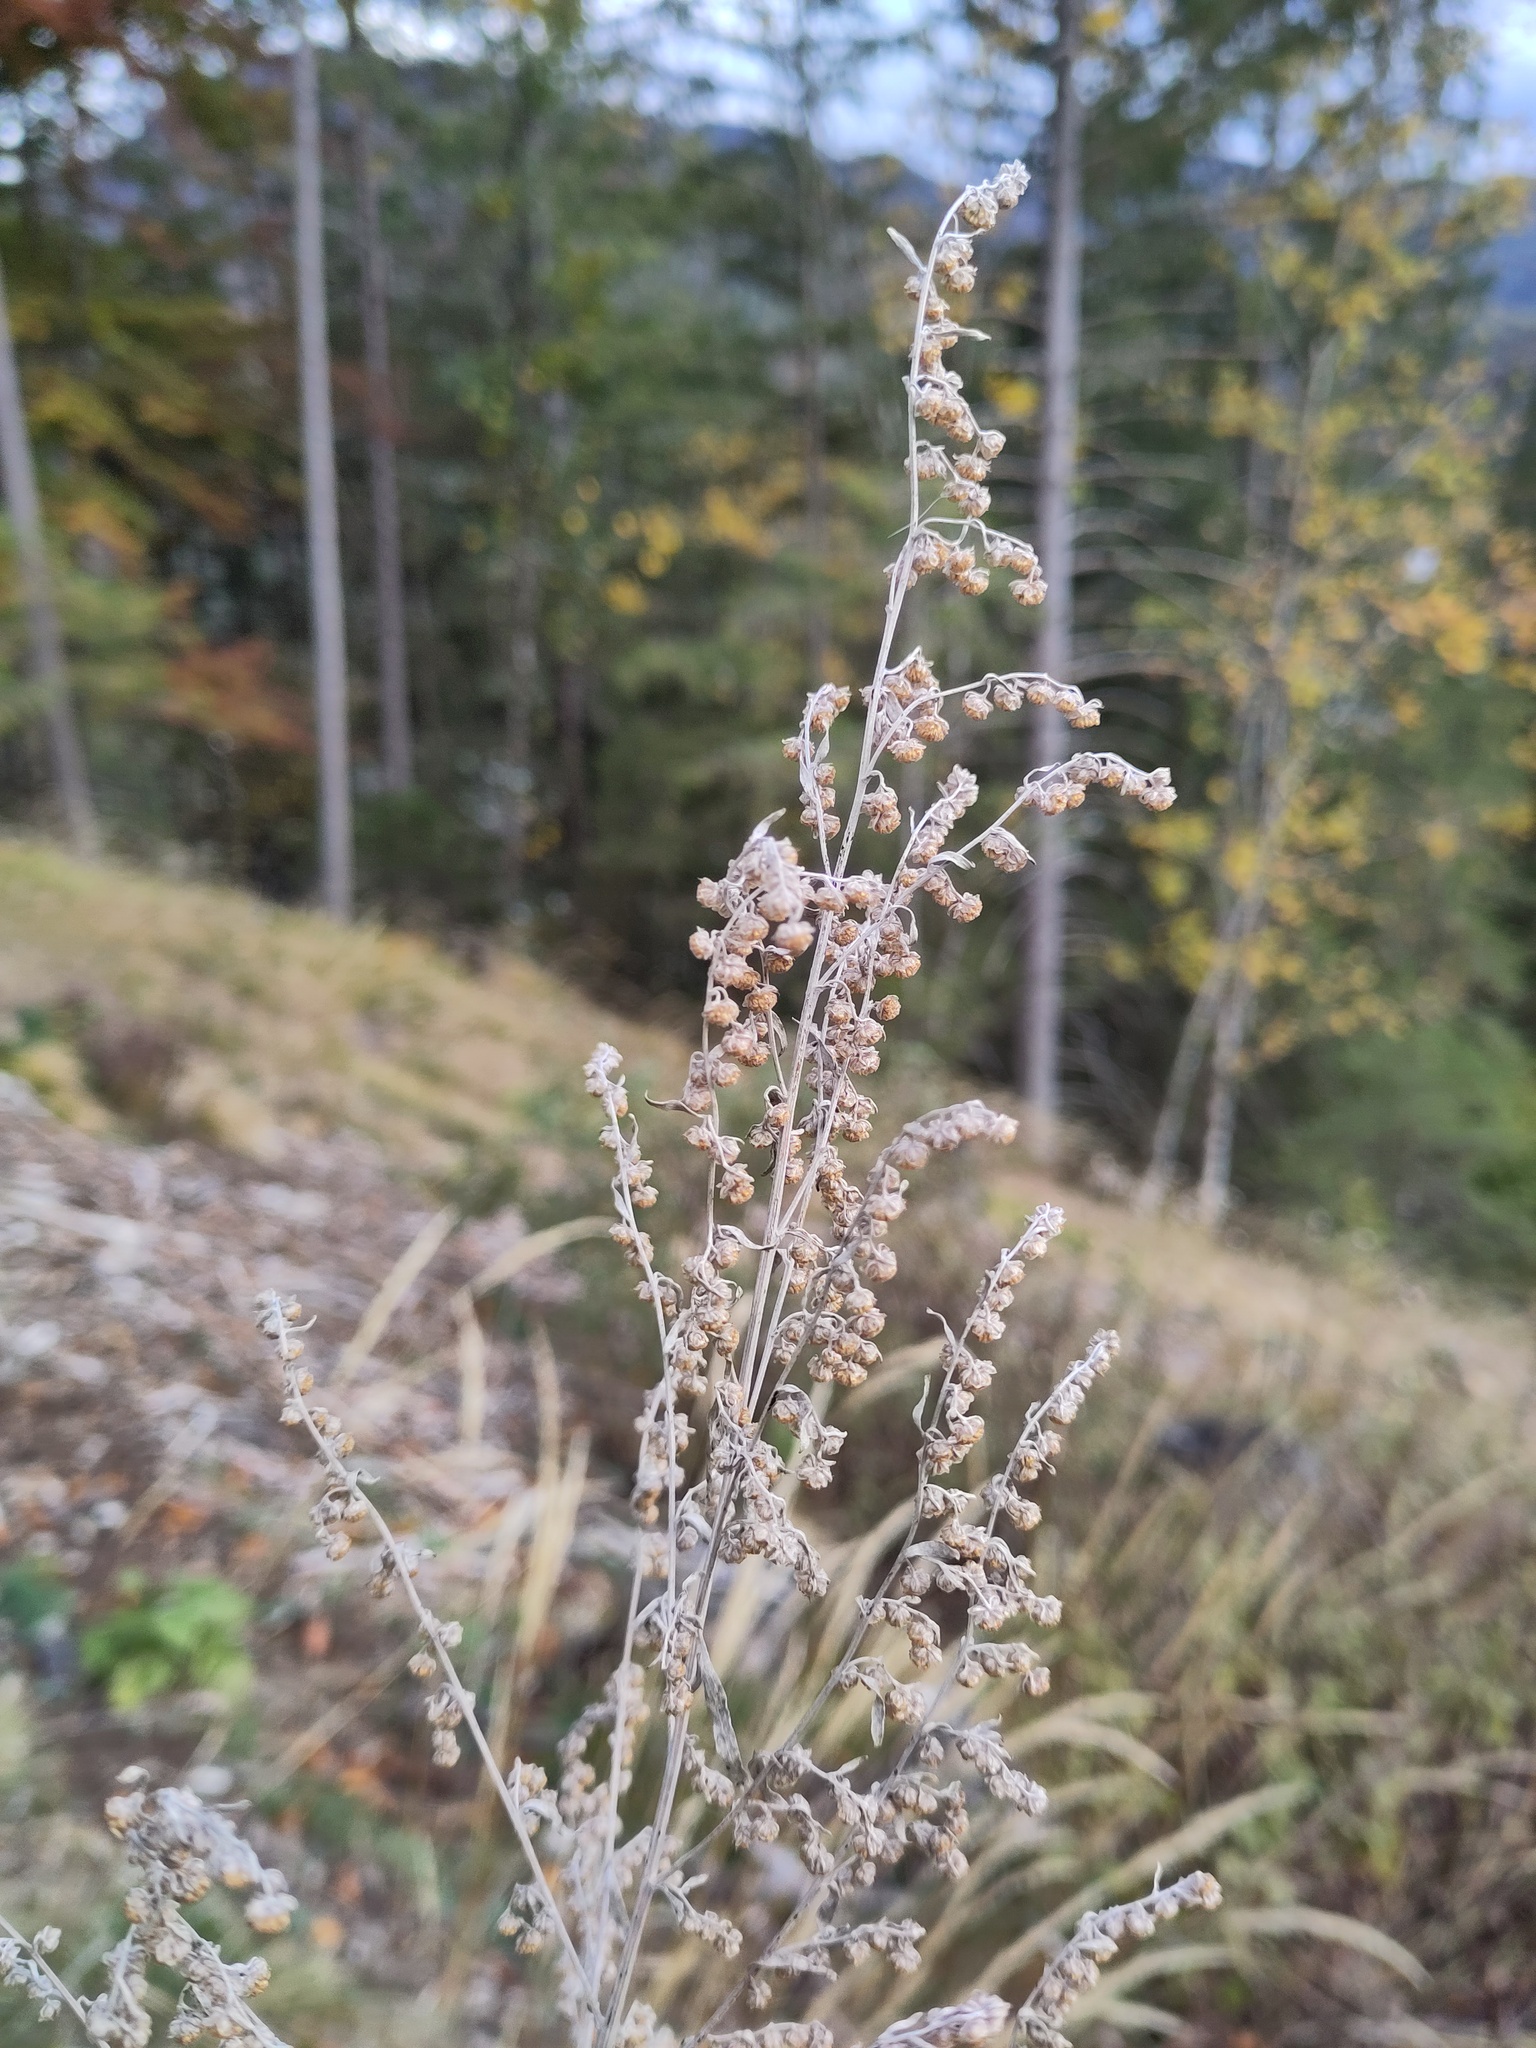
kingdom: Plantae
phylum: Tracheophyta
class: Magnoliopsida
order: Asterales
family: Asteraceae
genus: Artemisia
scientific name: Artemisia absinthium
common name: Wormwood
